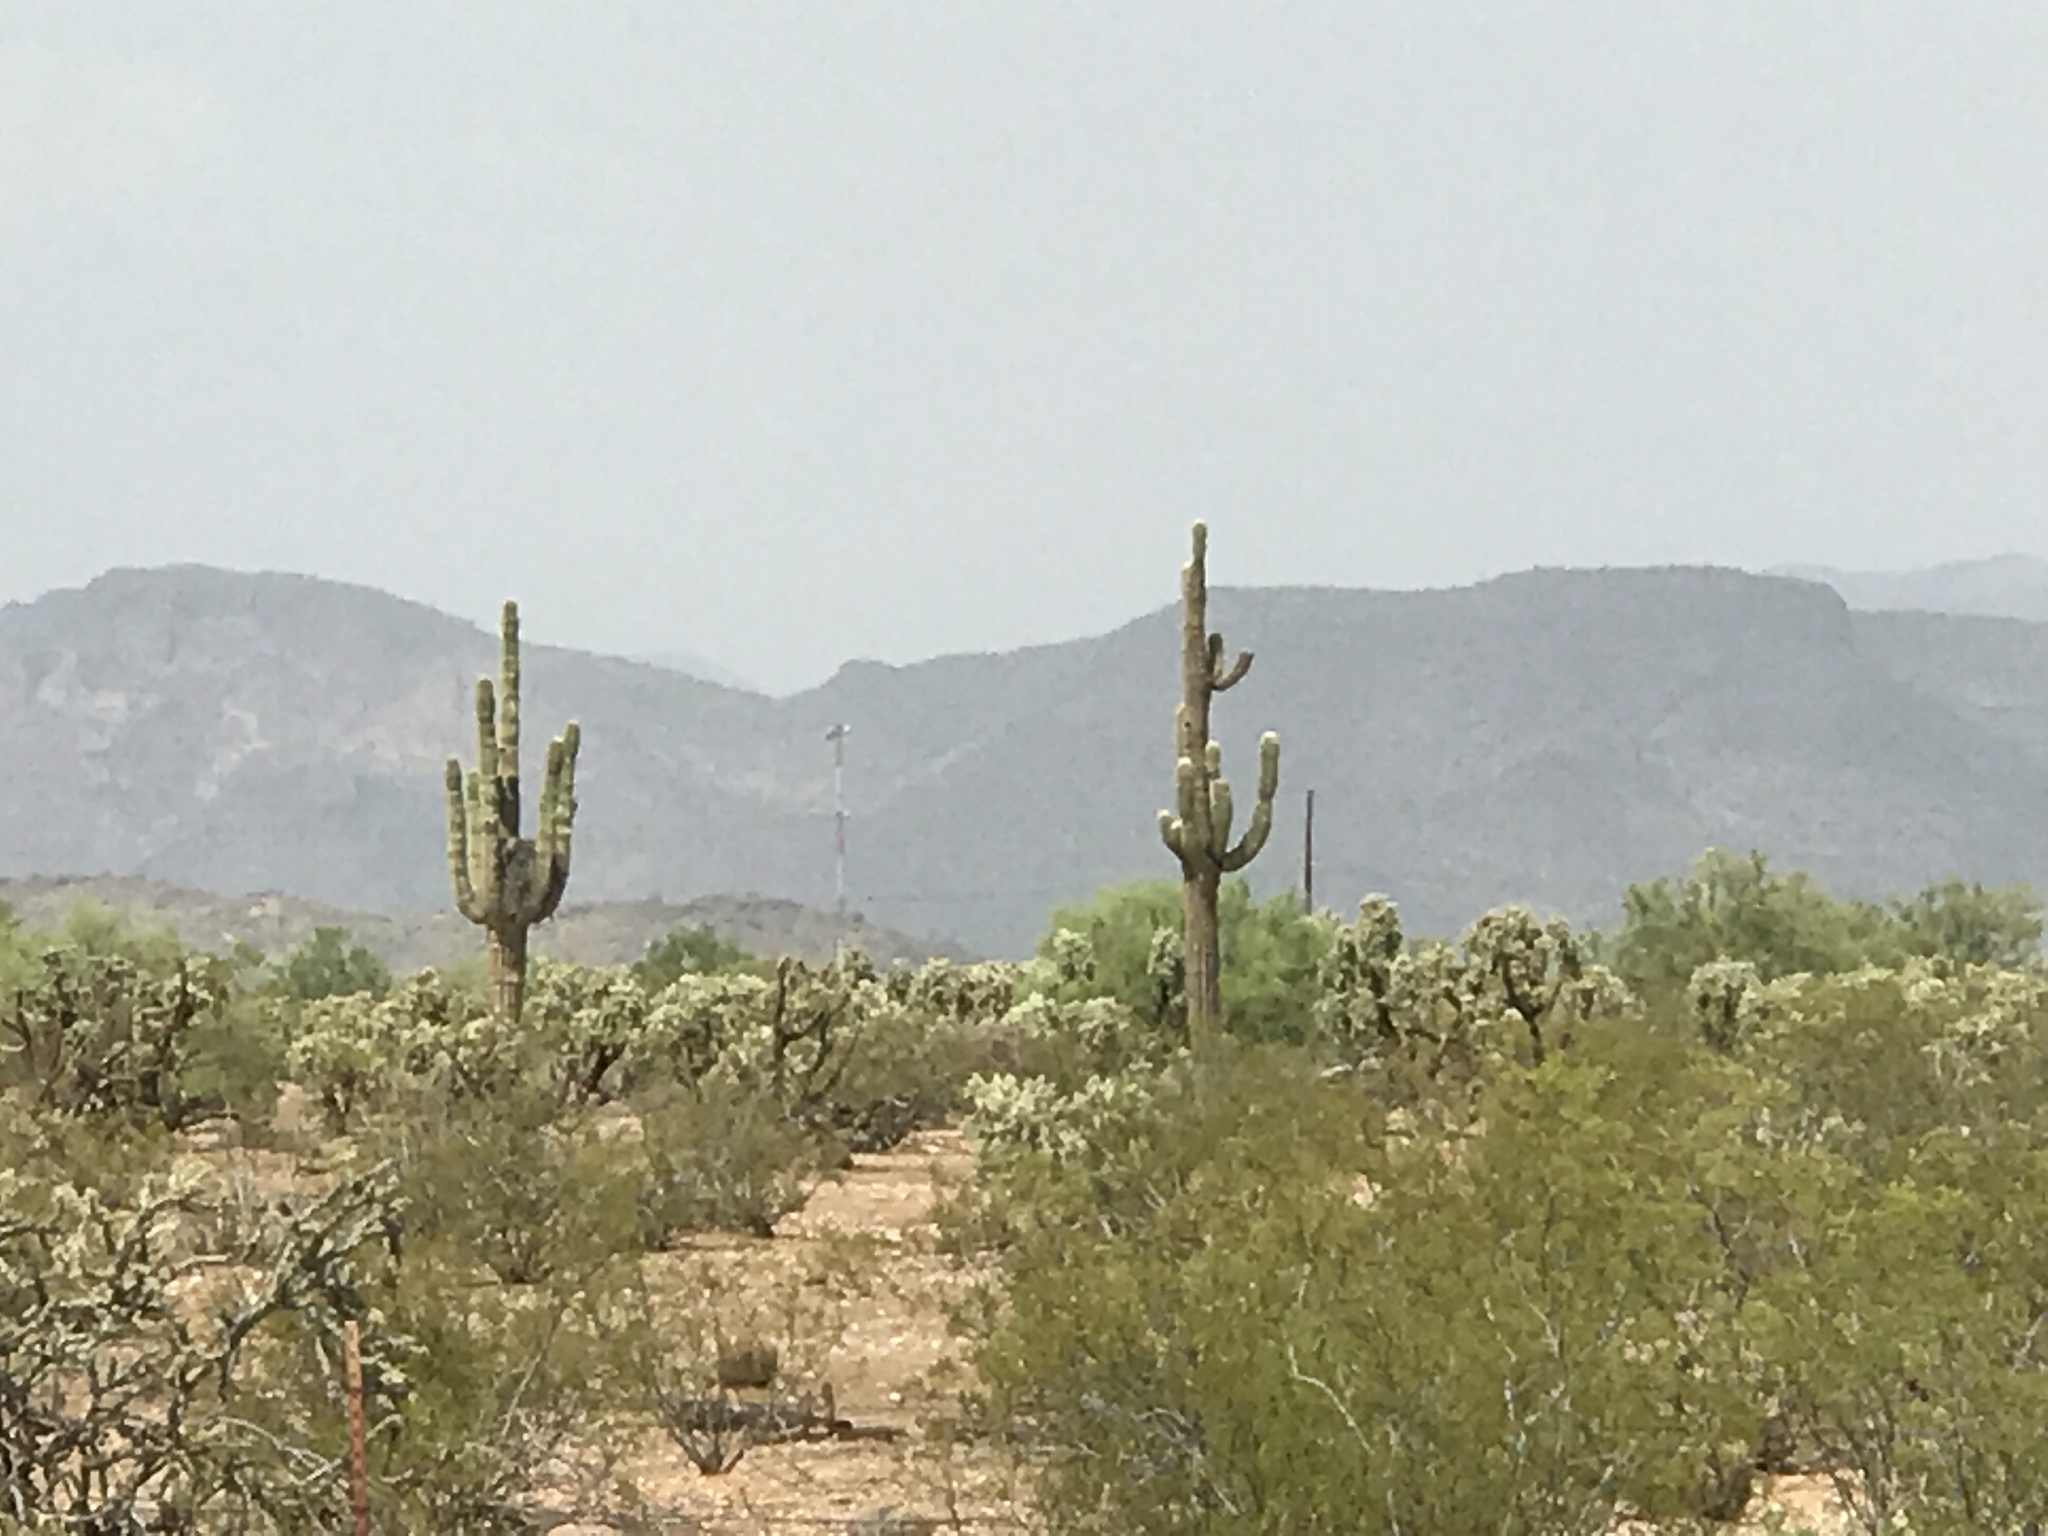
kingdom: Plantae
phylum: Tracheophyta
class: Magnoliopsida
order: Caryophyllales
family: Cactaceae
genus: Carnegiea
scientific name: Carnegiea gigantea
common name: Saguaro
